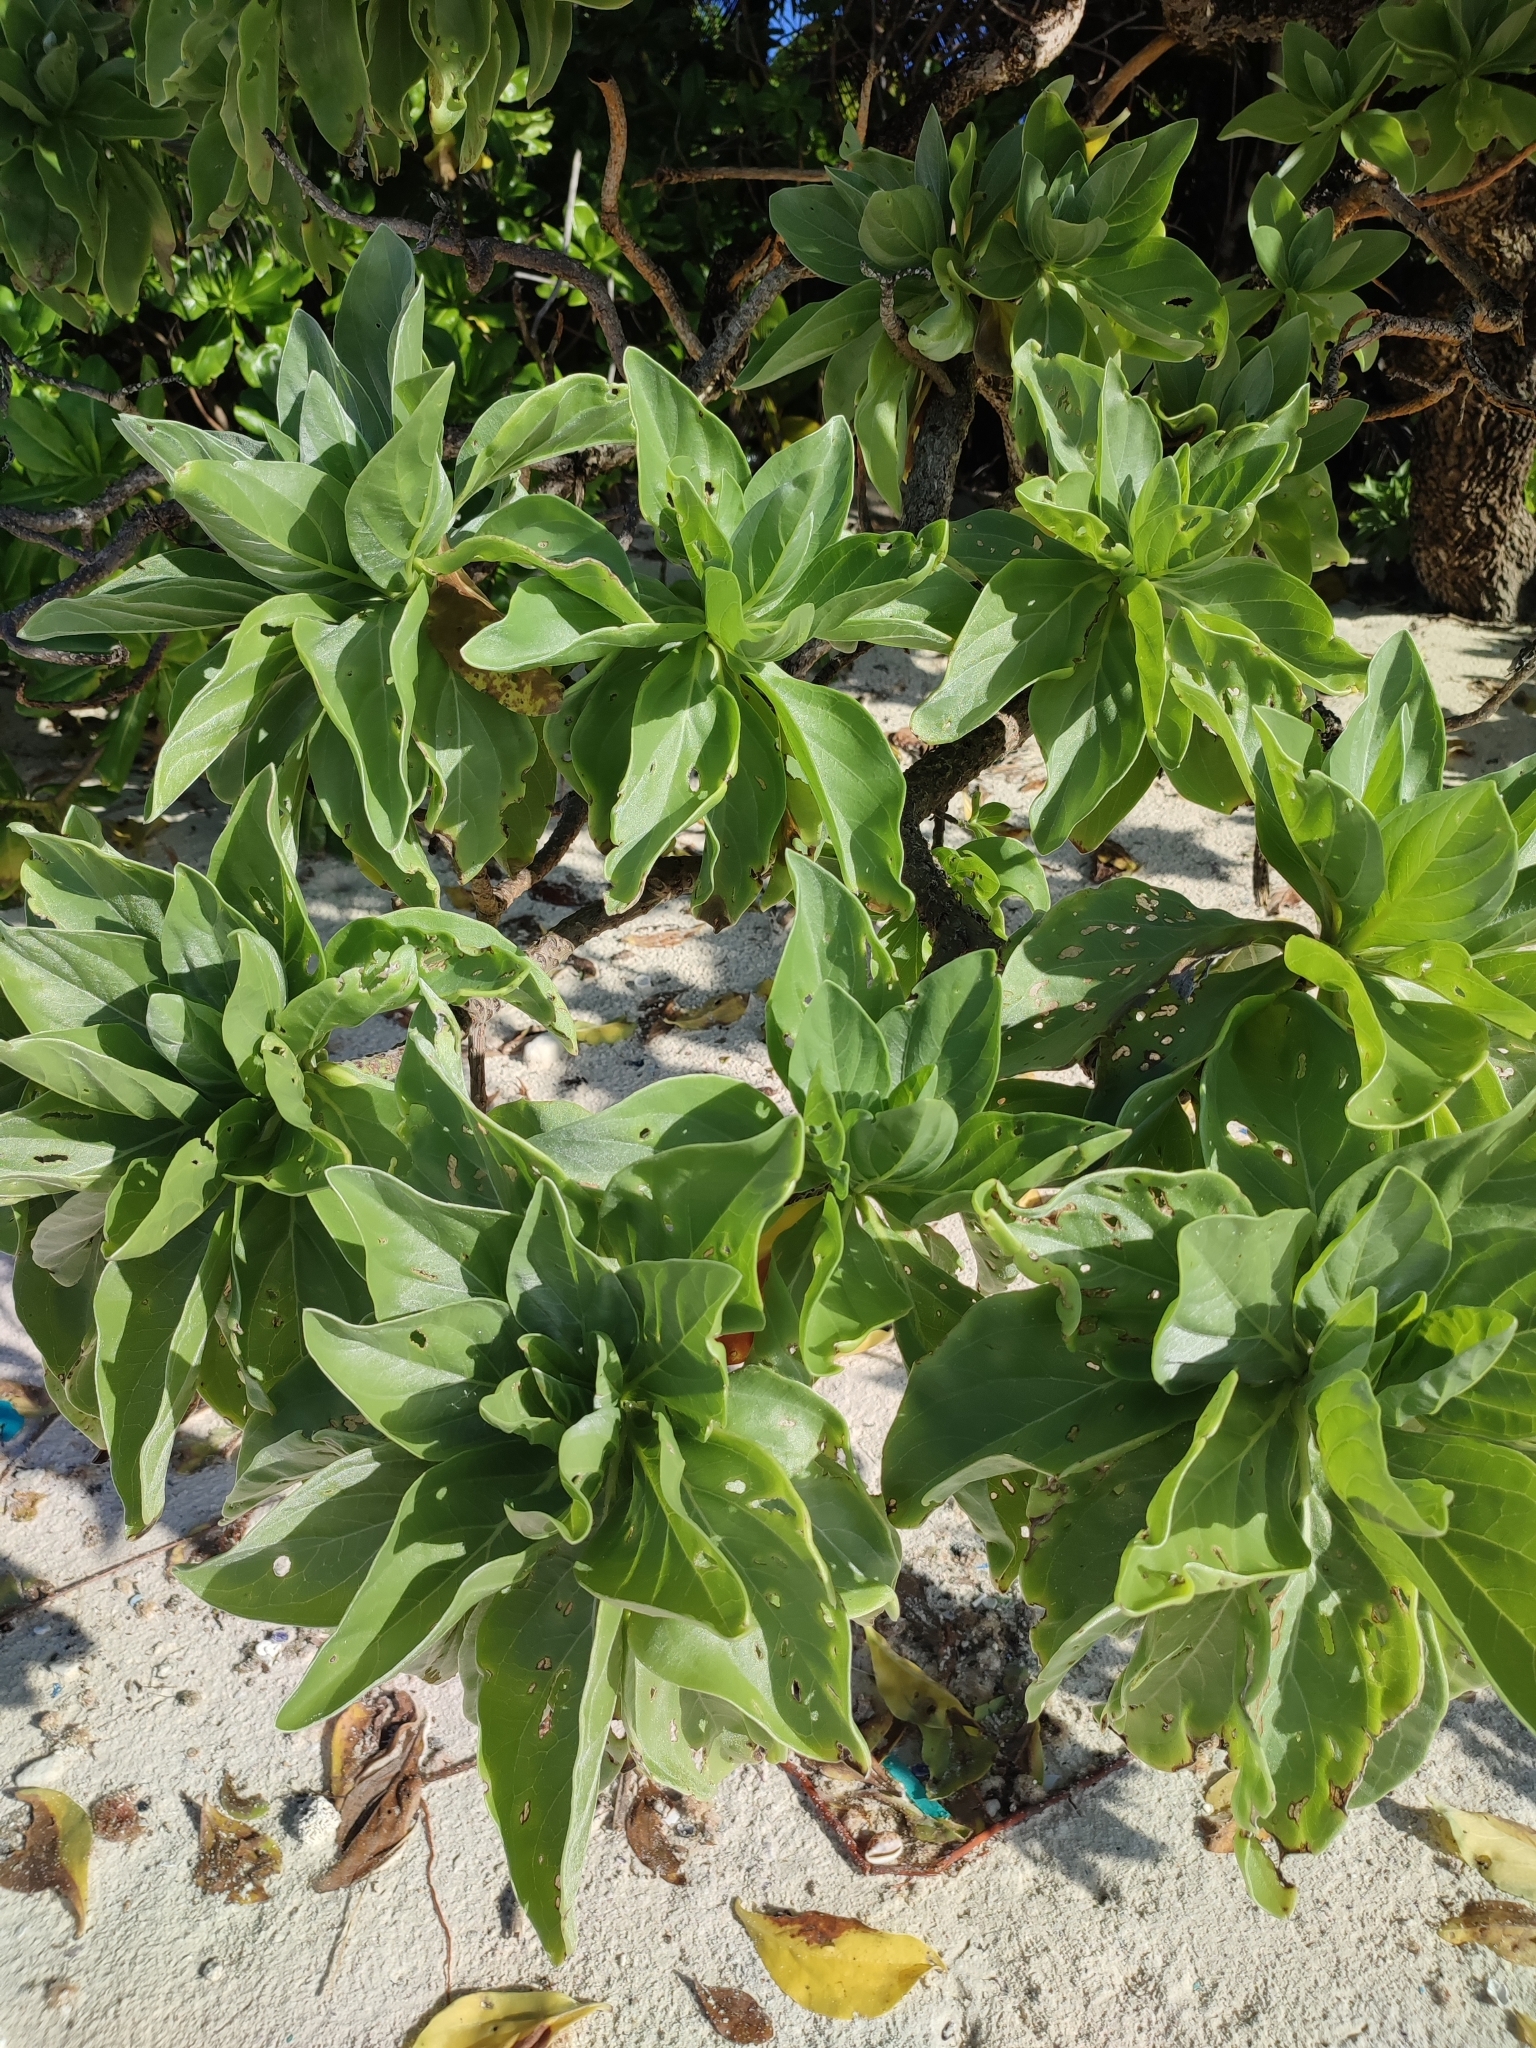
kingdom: Plantae
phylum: Tracheophyta
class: Magnoliopsida
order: Boraginales
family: Heliotropiaceae
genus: Heliotropium
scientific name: Heliotropium velutinum
